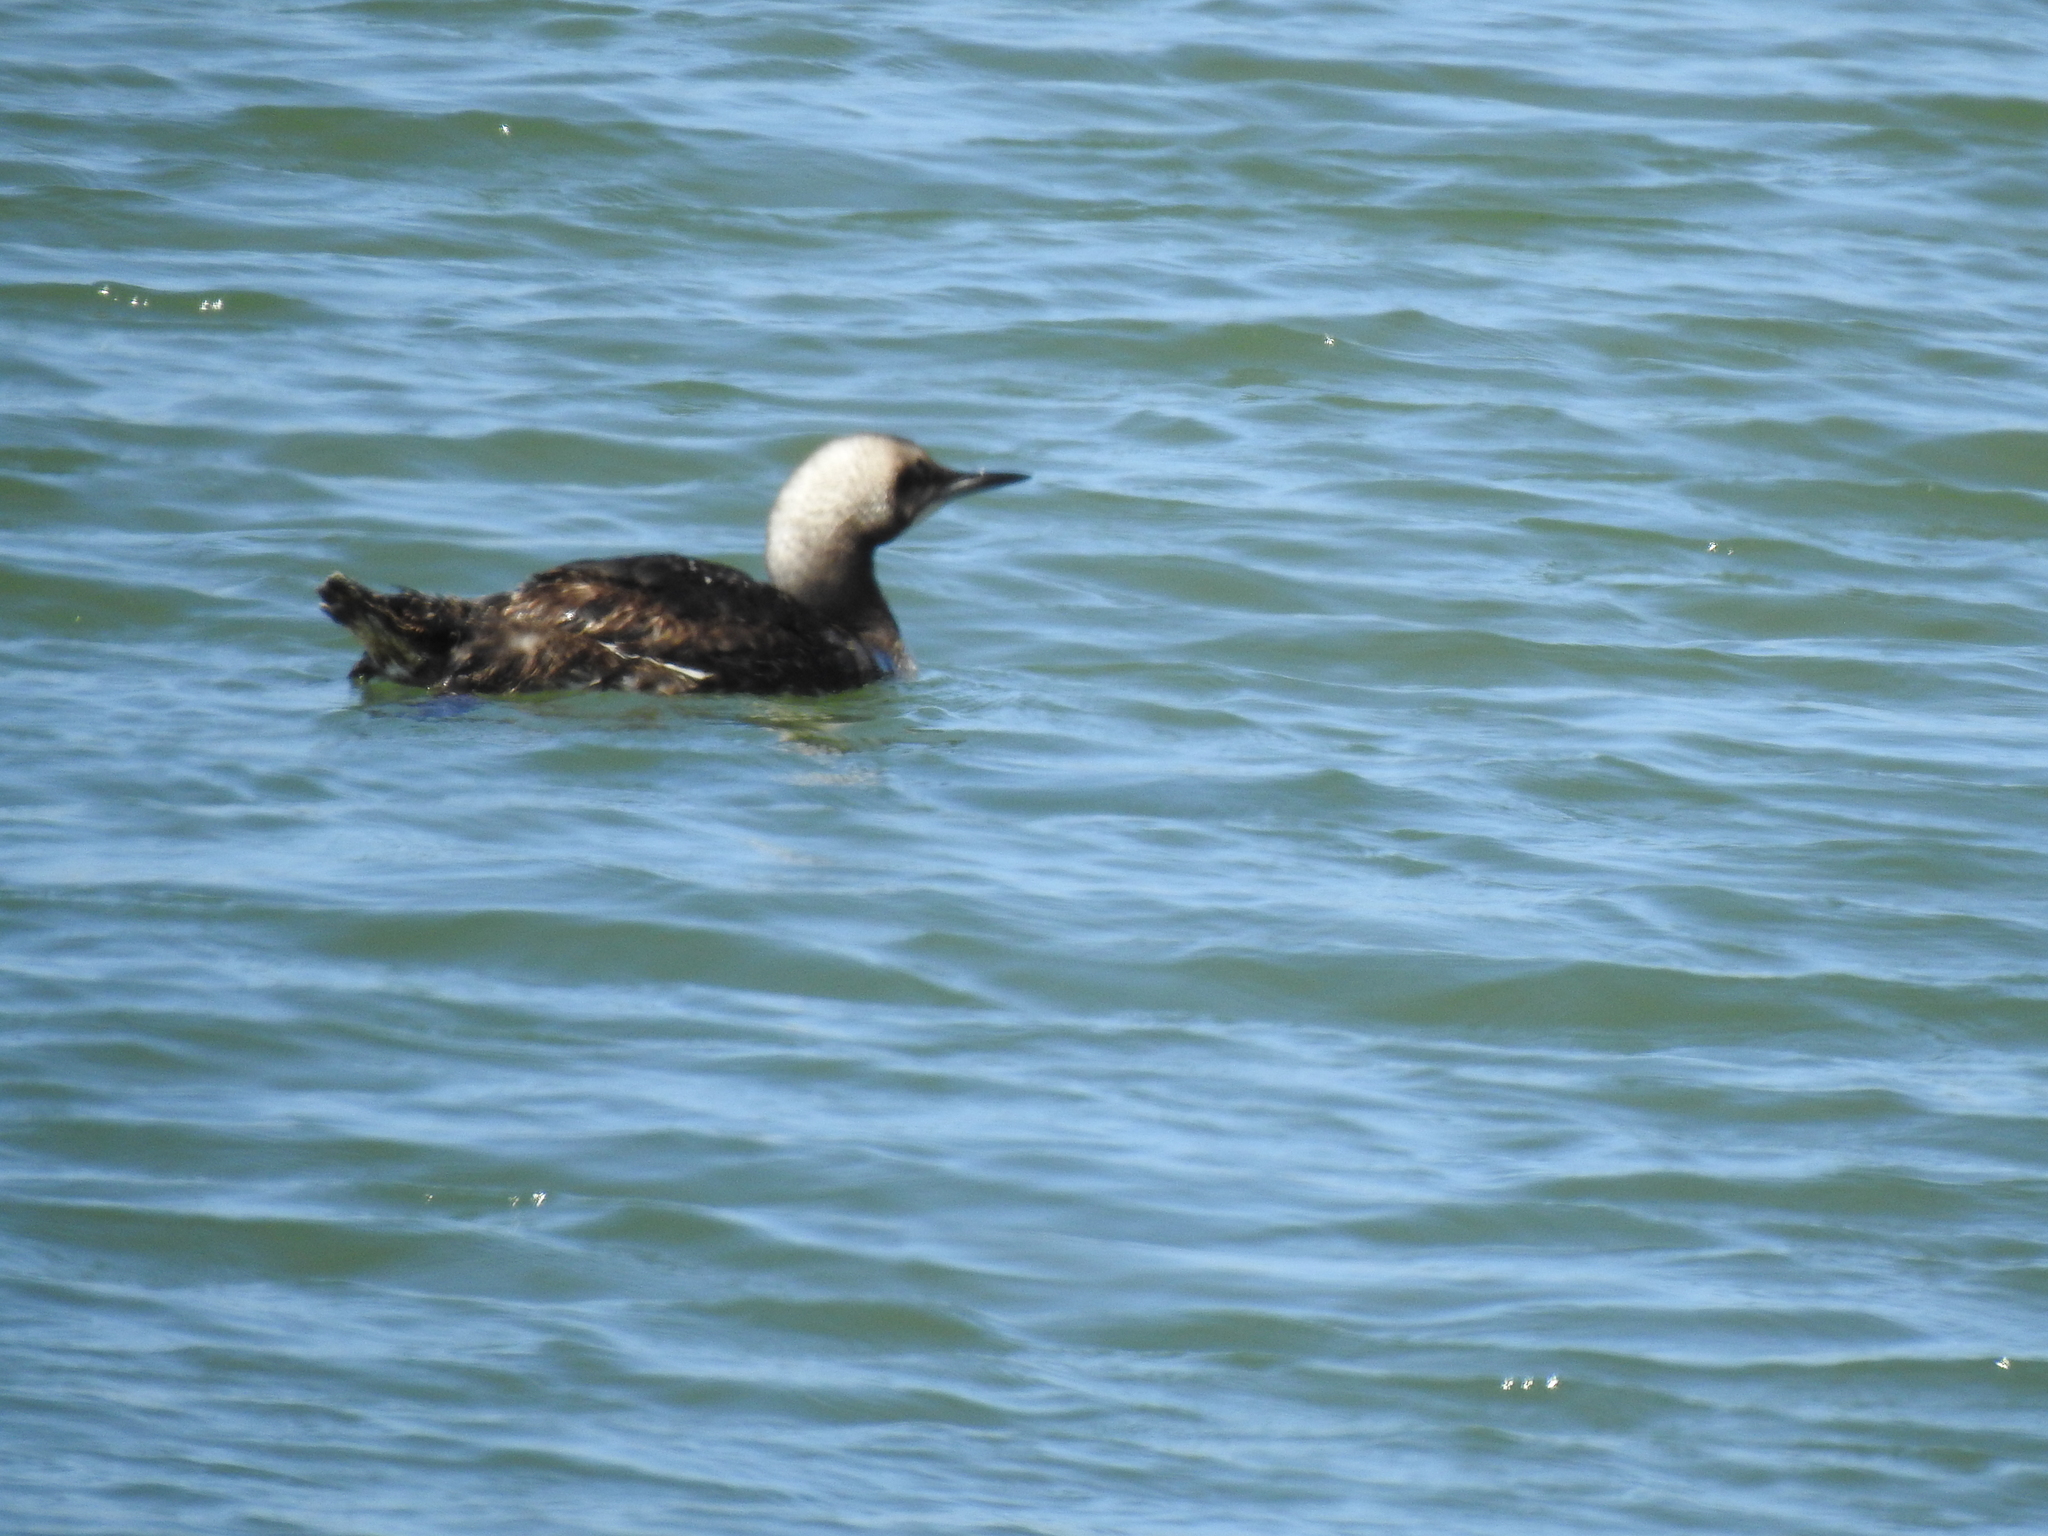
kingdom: Animalia
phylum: Chordata
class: Aves
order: Gaviiformes
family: Gaviidae
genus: Gavia
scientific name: Gavia pacifica
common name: Pacific loon
